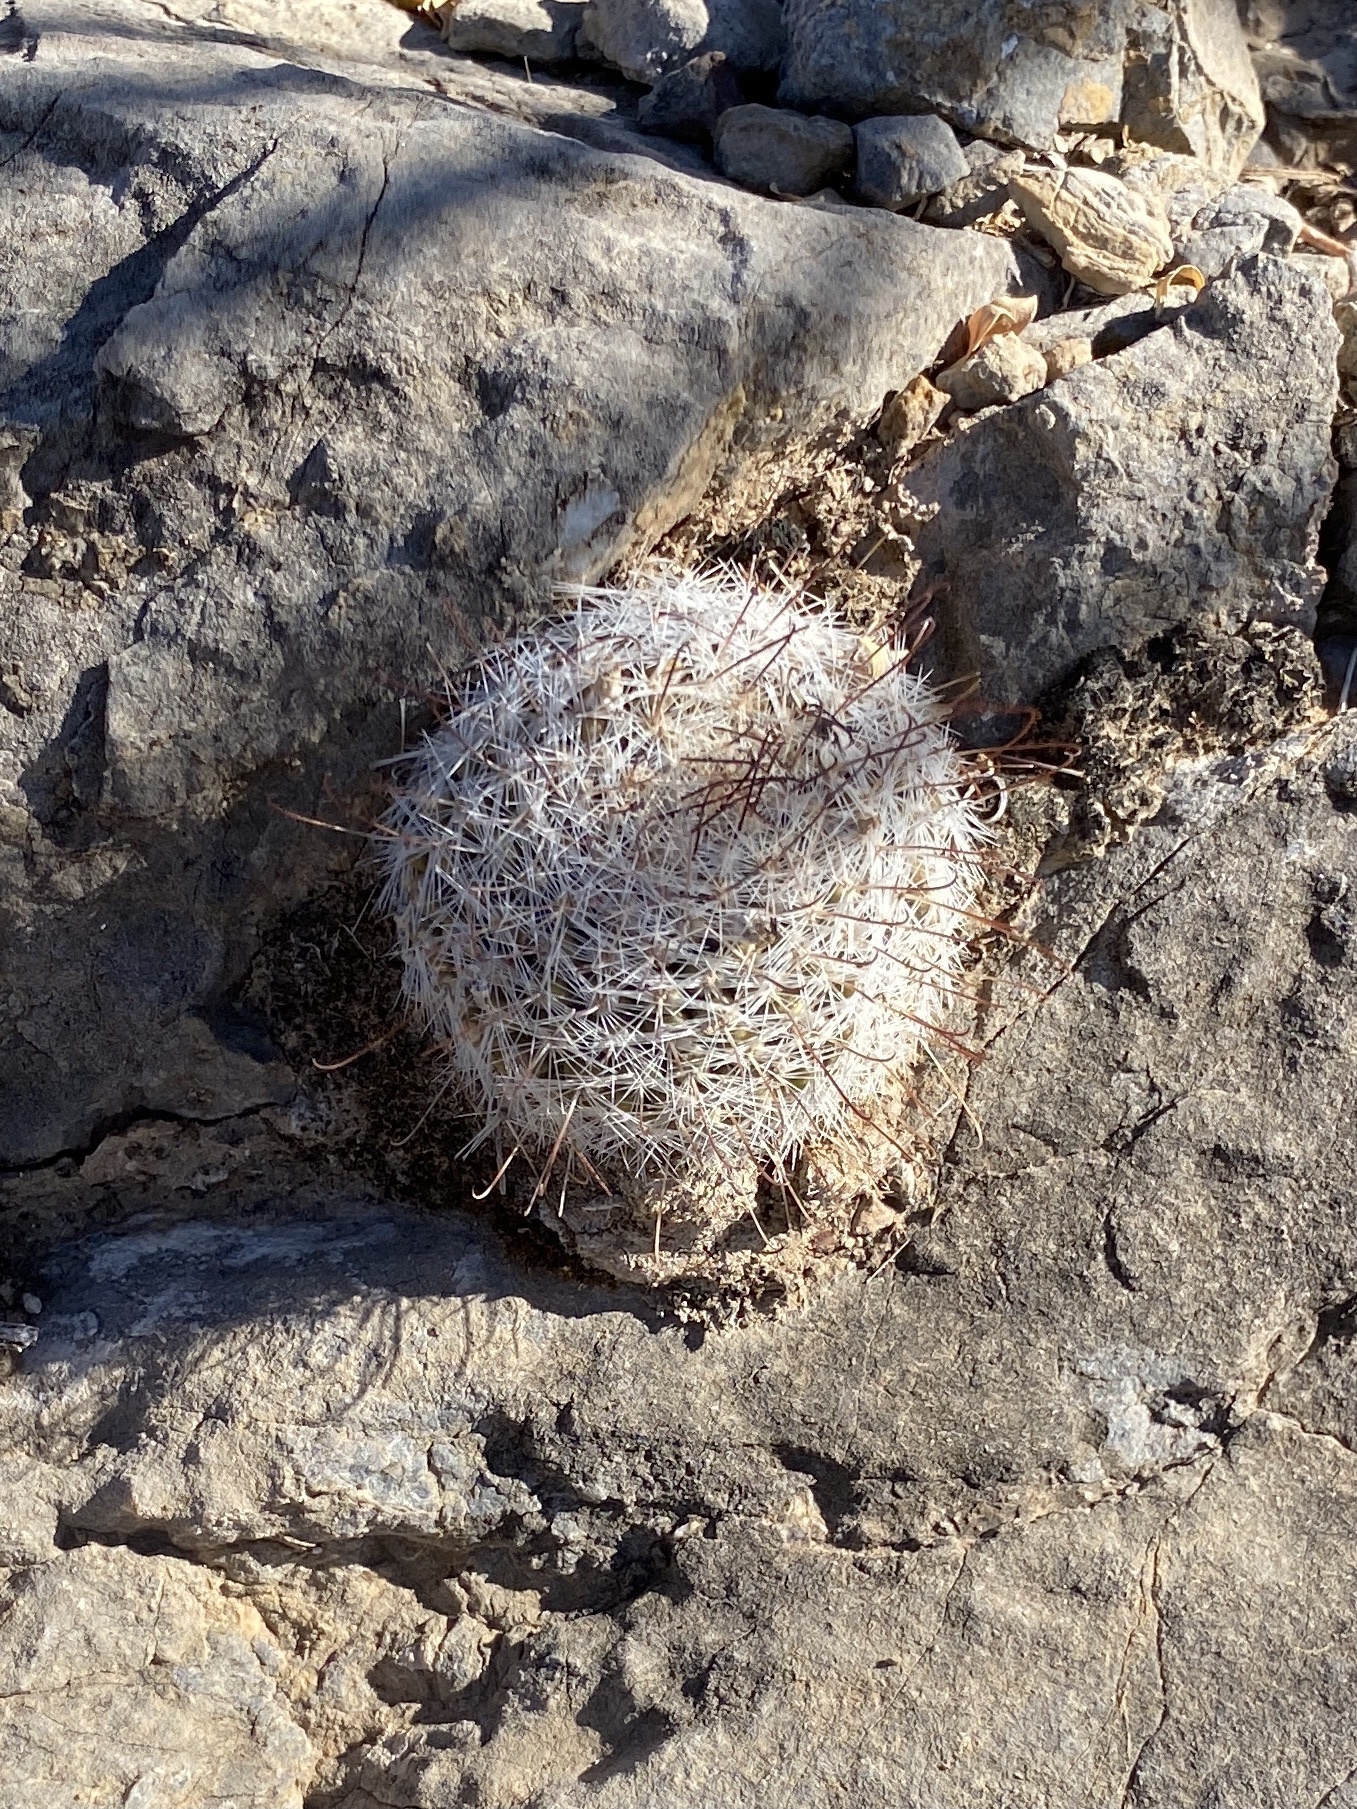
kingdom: Plantae
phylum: Tracheophyta
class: Magnoliopsida
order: Caryophyllales
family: Cactaceae
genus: Cochemiea
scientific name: Cochemiea grahamii
